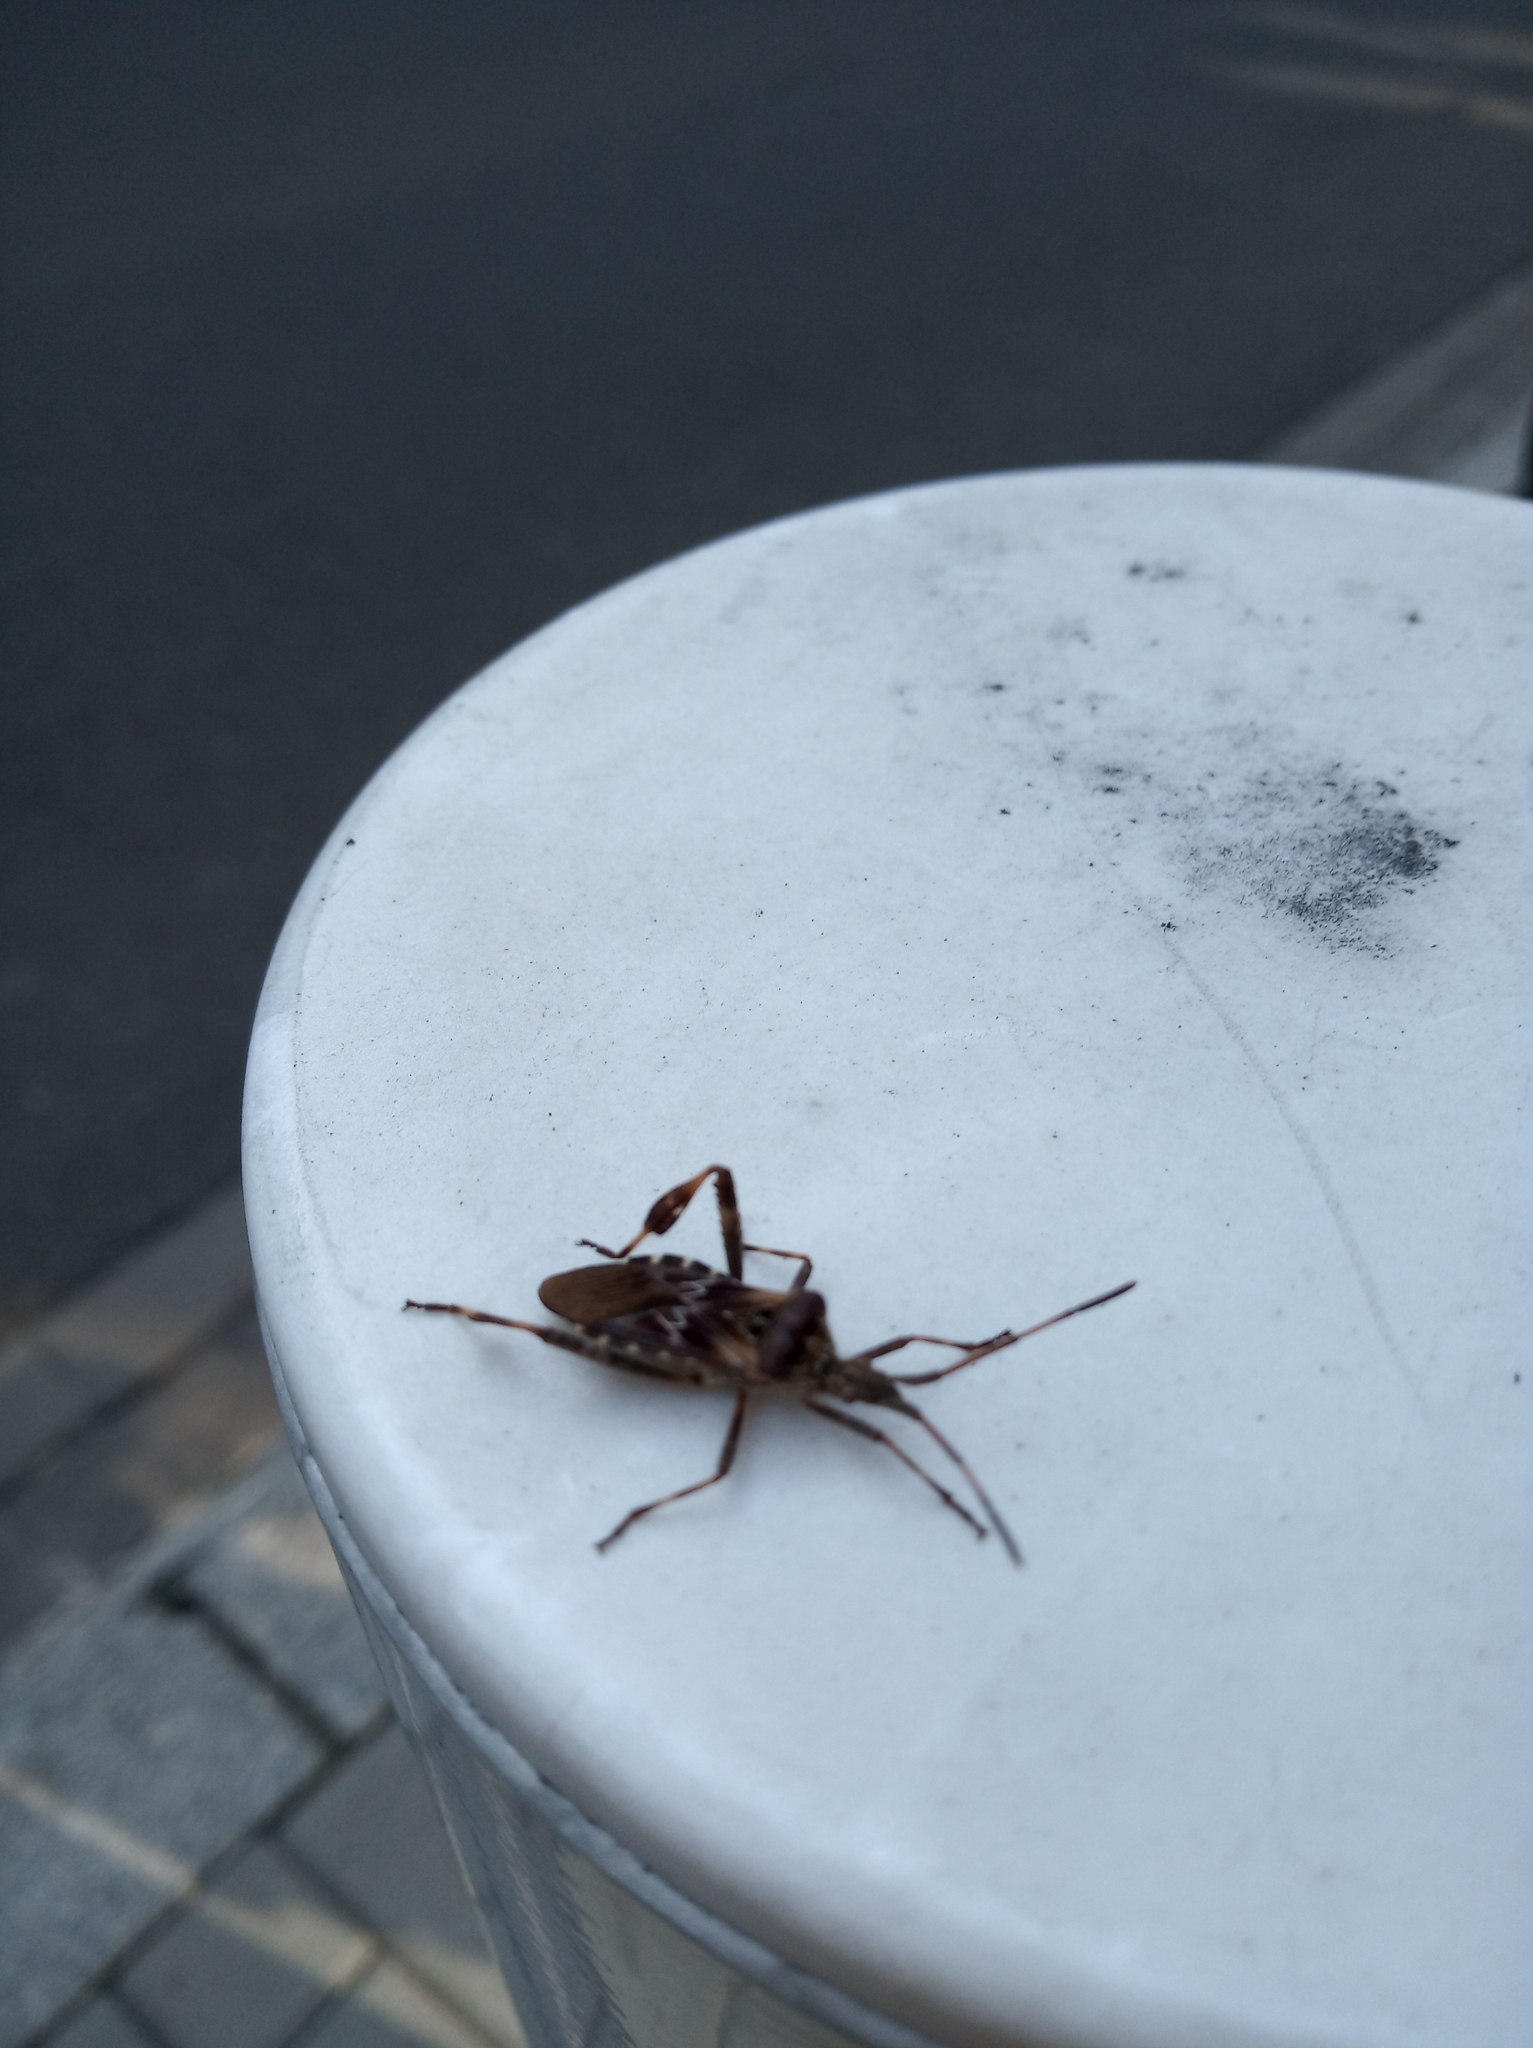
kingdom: Animalia
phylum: Arthropoda
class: Insecta
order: Hemiptera
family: Coreidae
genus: Leptoglossus
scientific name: Leptoglossus occidentalis
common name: Western conifer-seed bug
